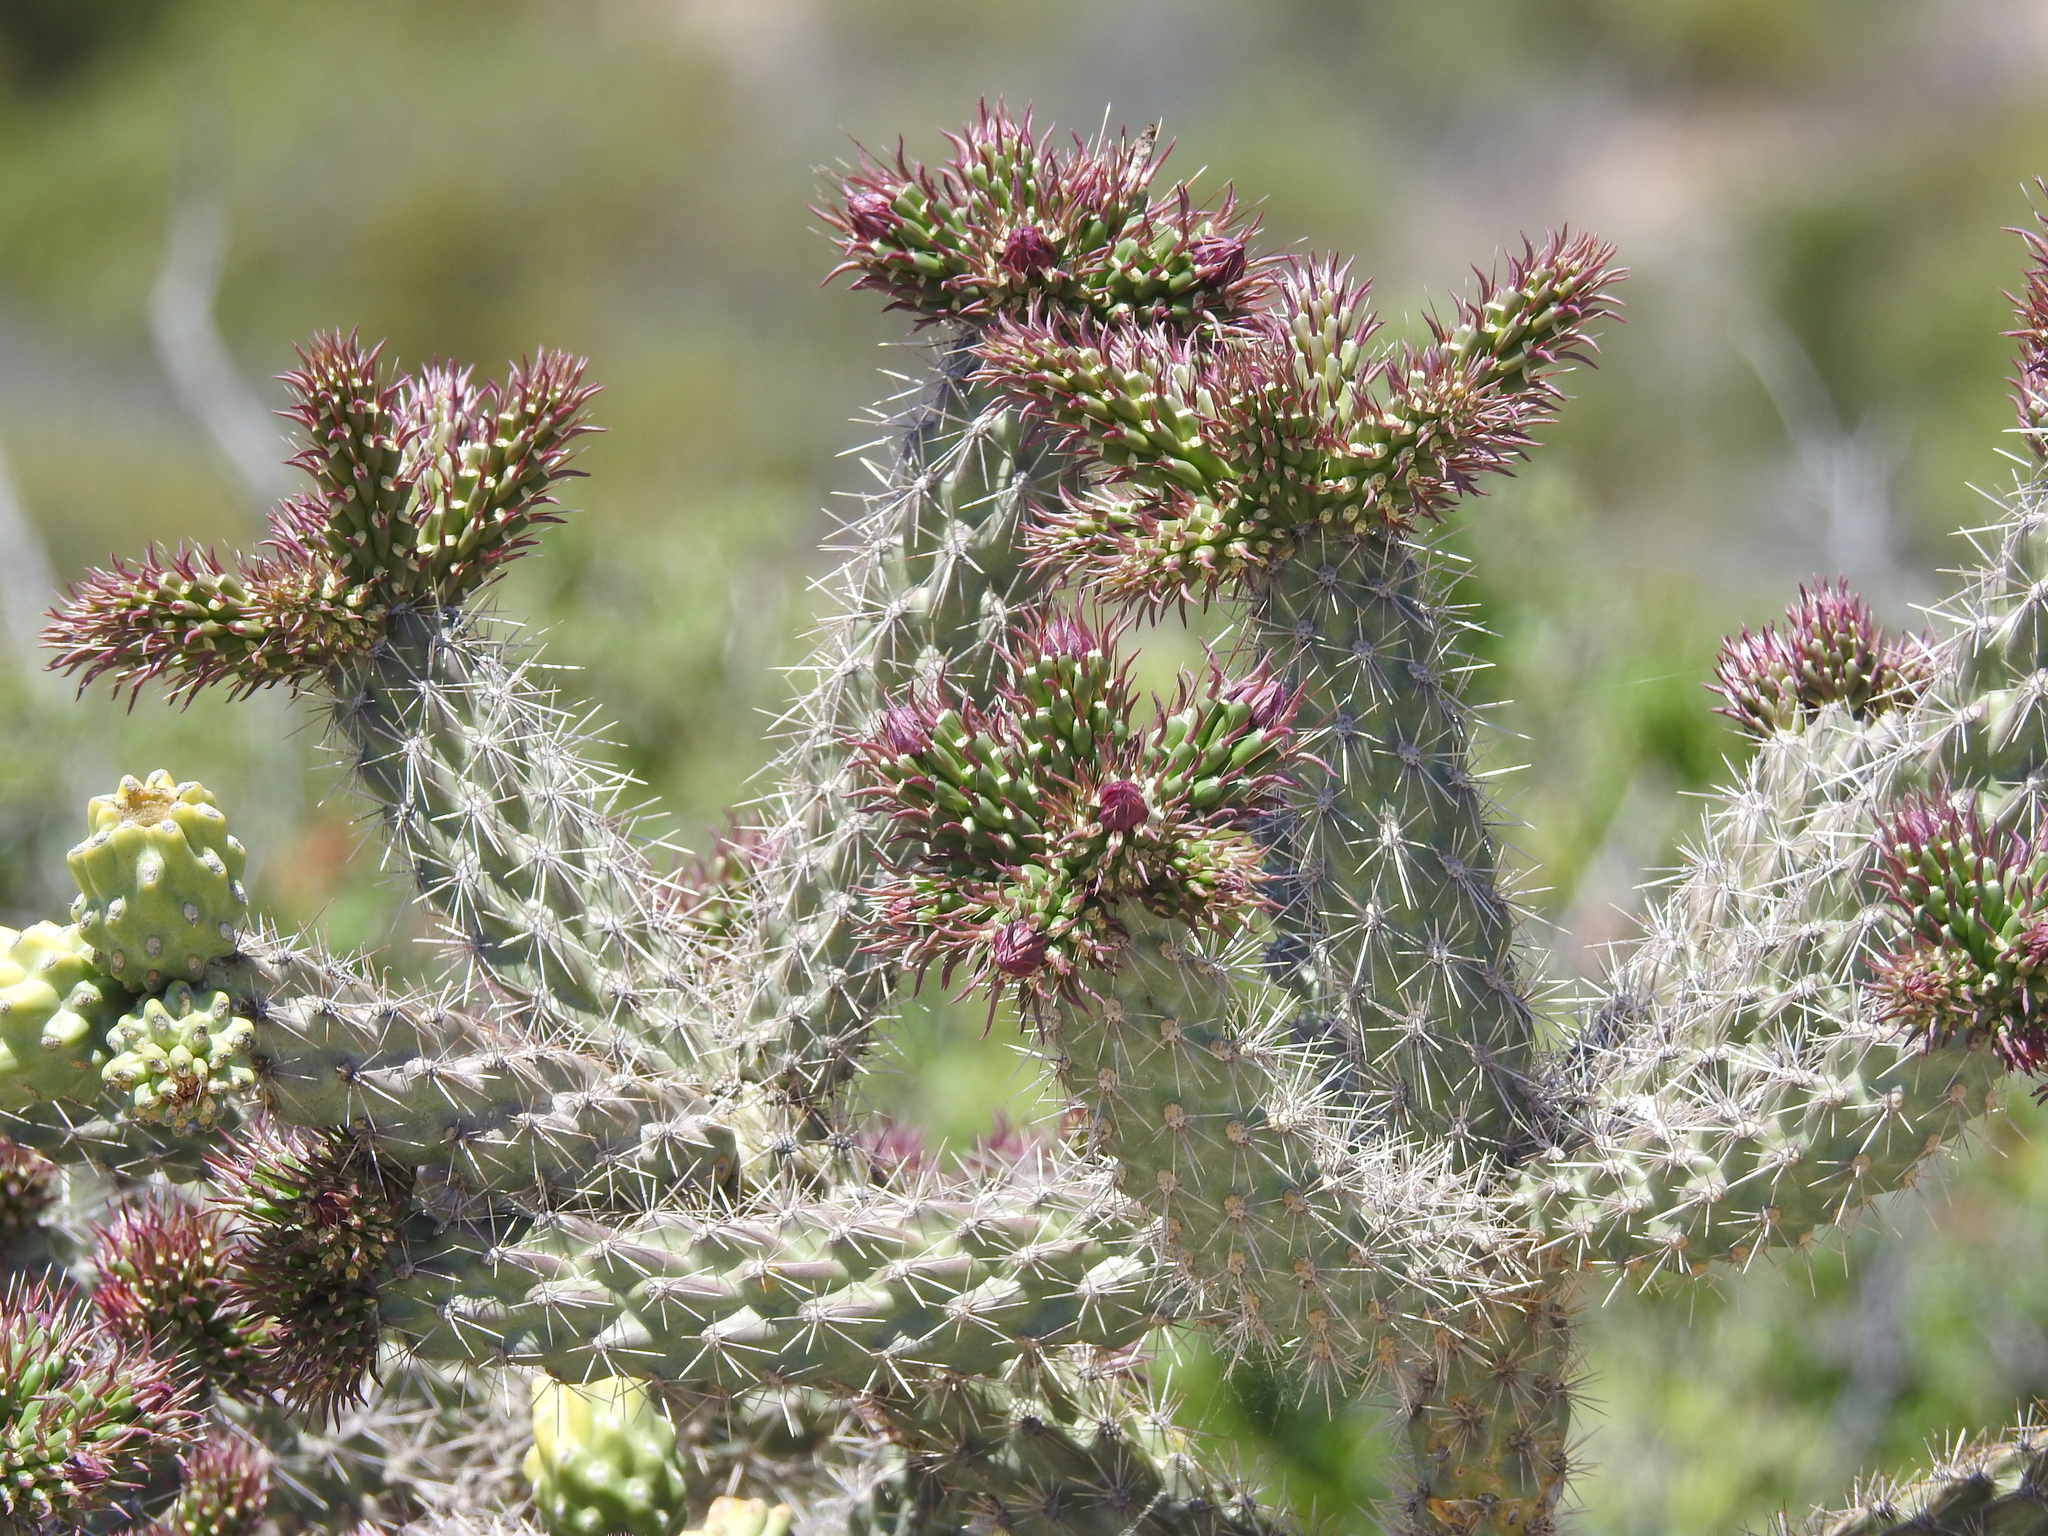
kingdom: Plantae
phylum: Tracheophyta
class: Magnoliopsida
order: Caryophyllales
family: Cactaceae
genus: Cylindropuntia
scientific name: Cylindropuntia imbricata
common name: Candelabrum cactus
